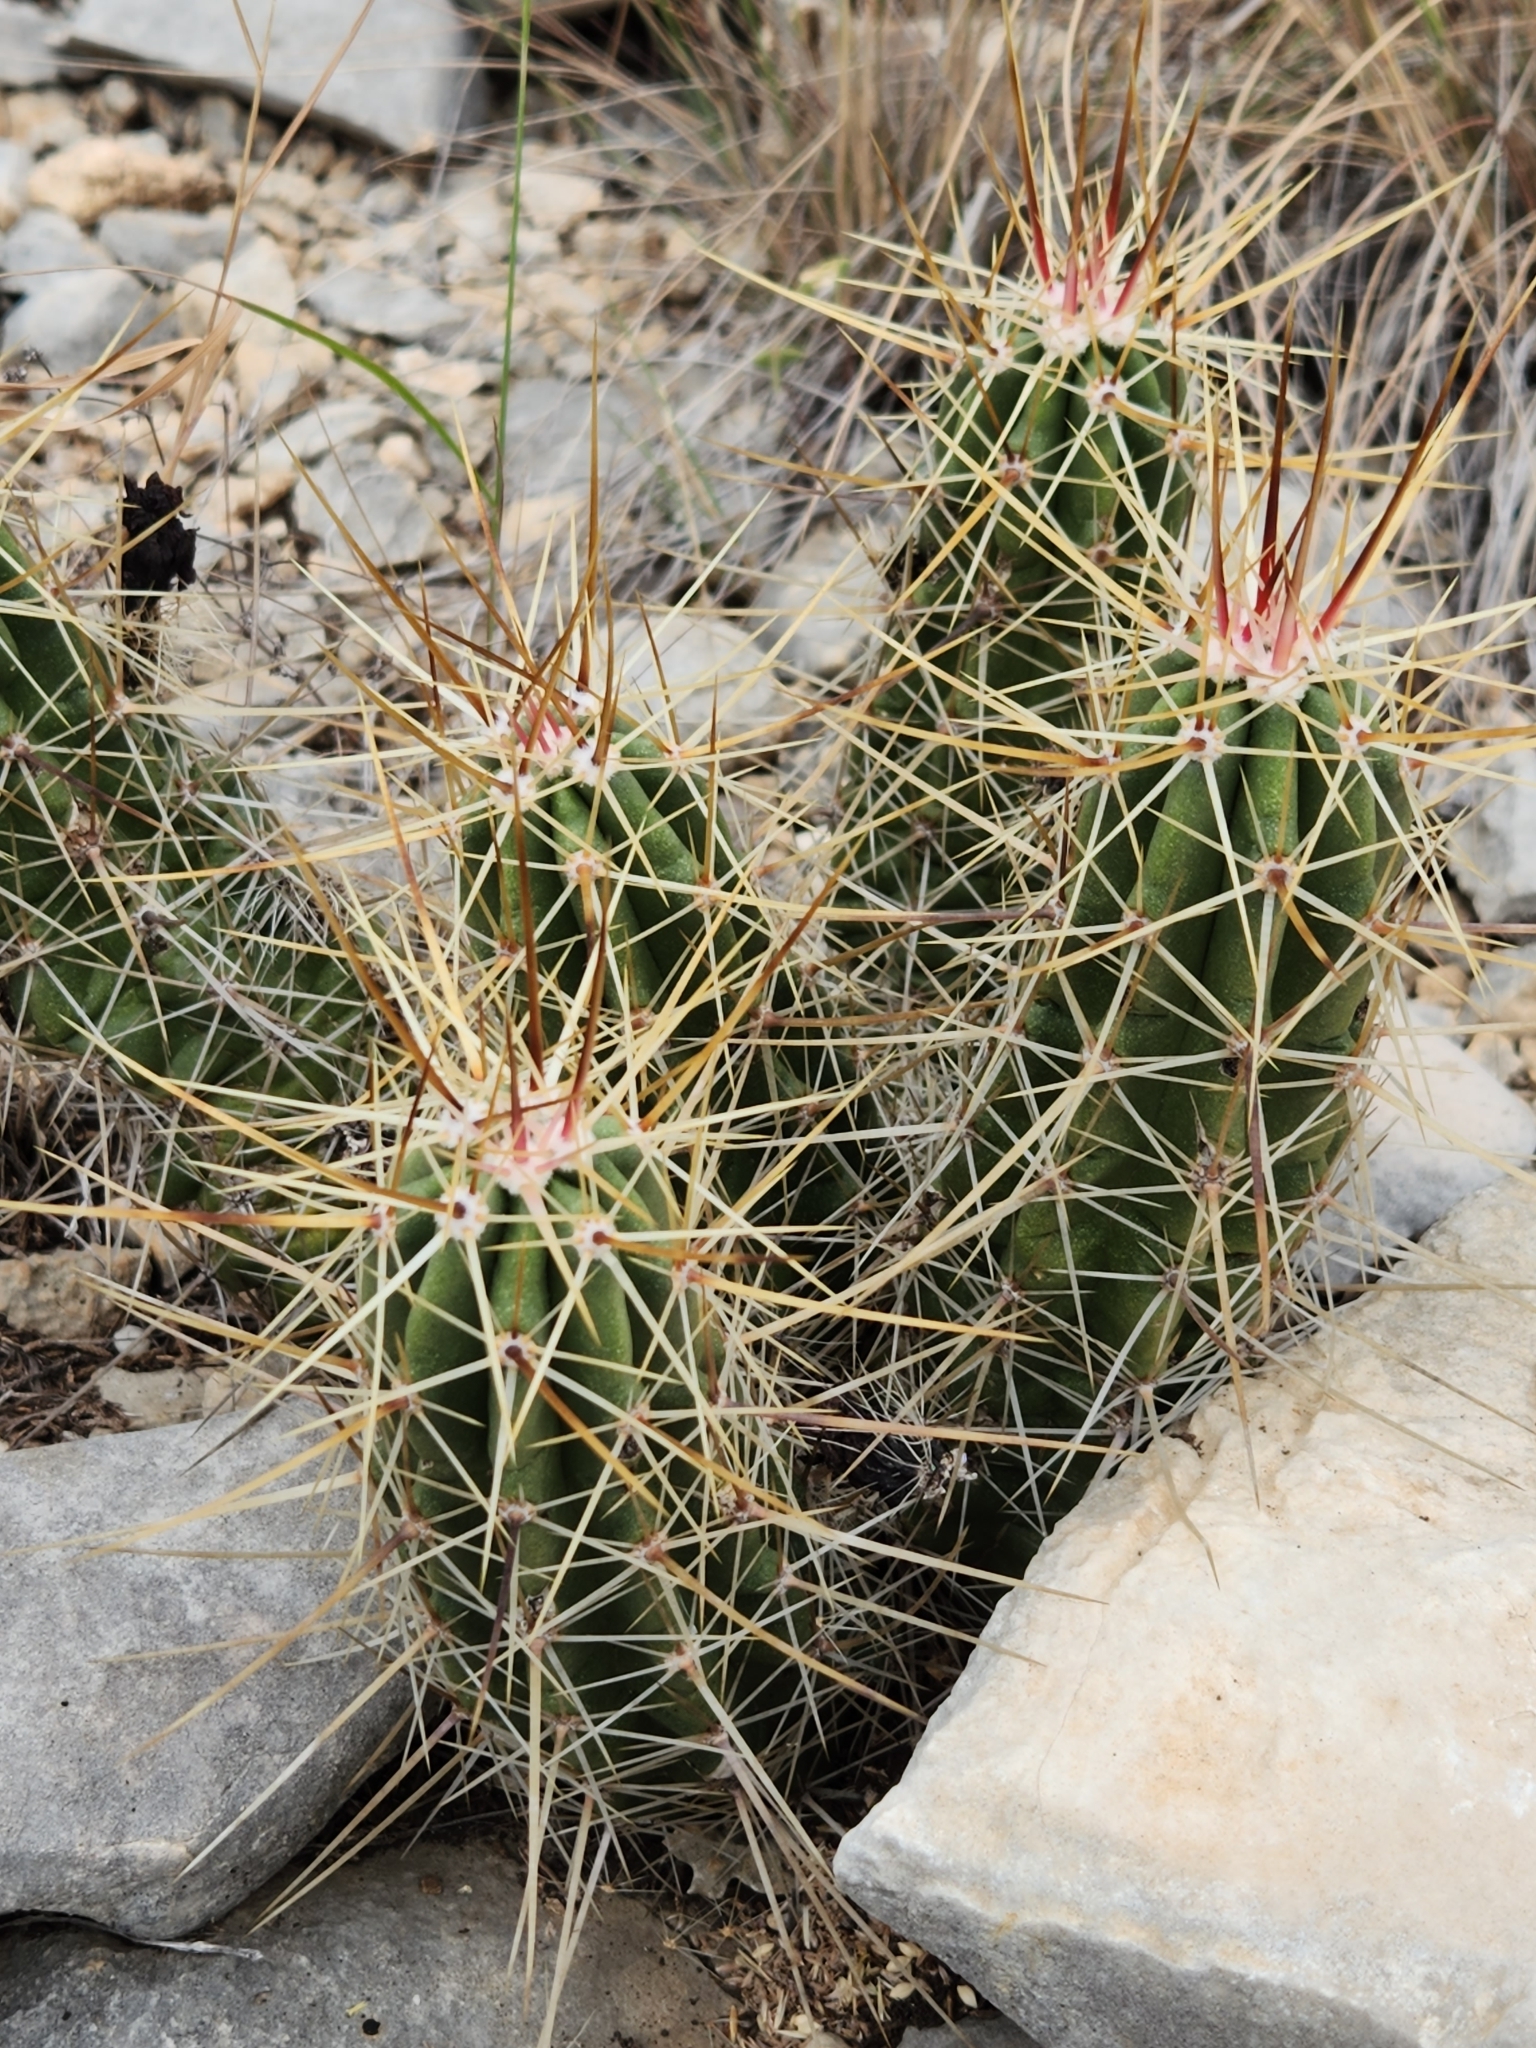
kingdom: Plantae
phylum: Tracheophyta
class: Magnoliopsida
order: Caryophyllales
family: Cactaceae
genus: Echinocereus
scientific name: Echinocereus enneacanthus
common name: Pitaya
